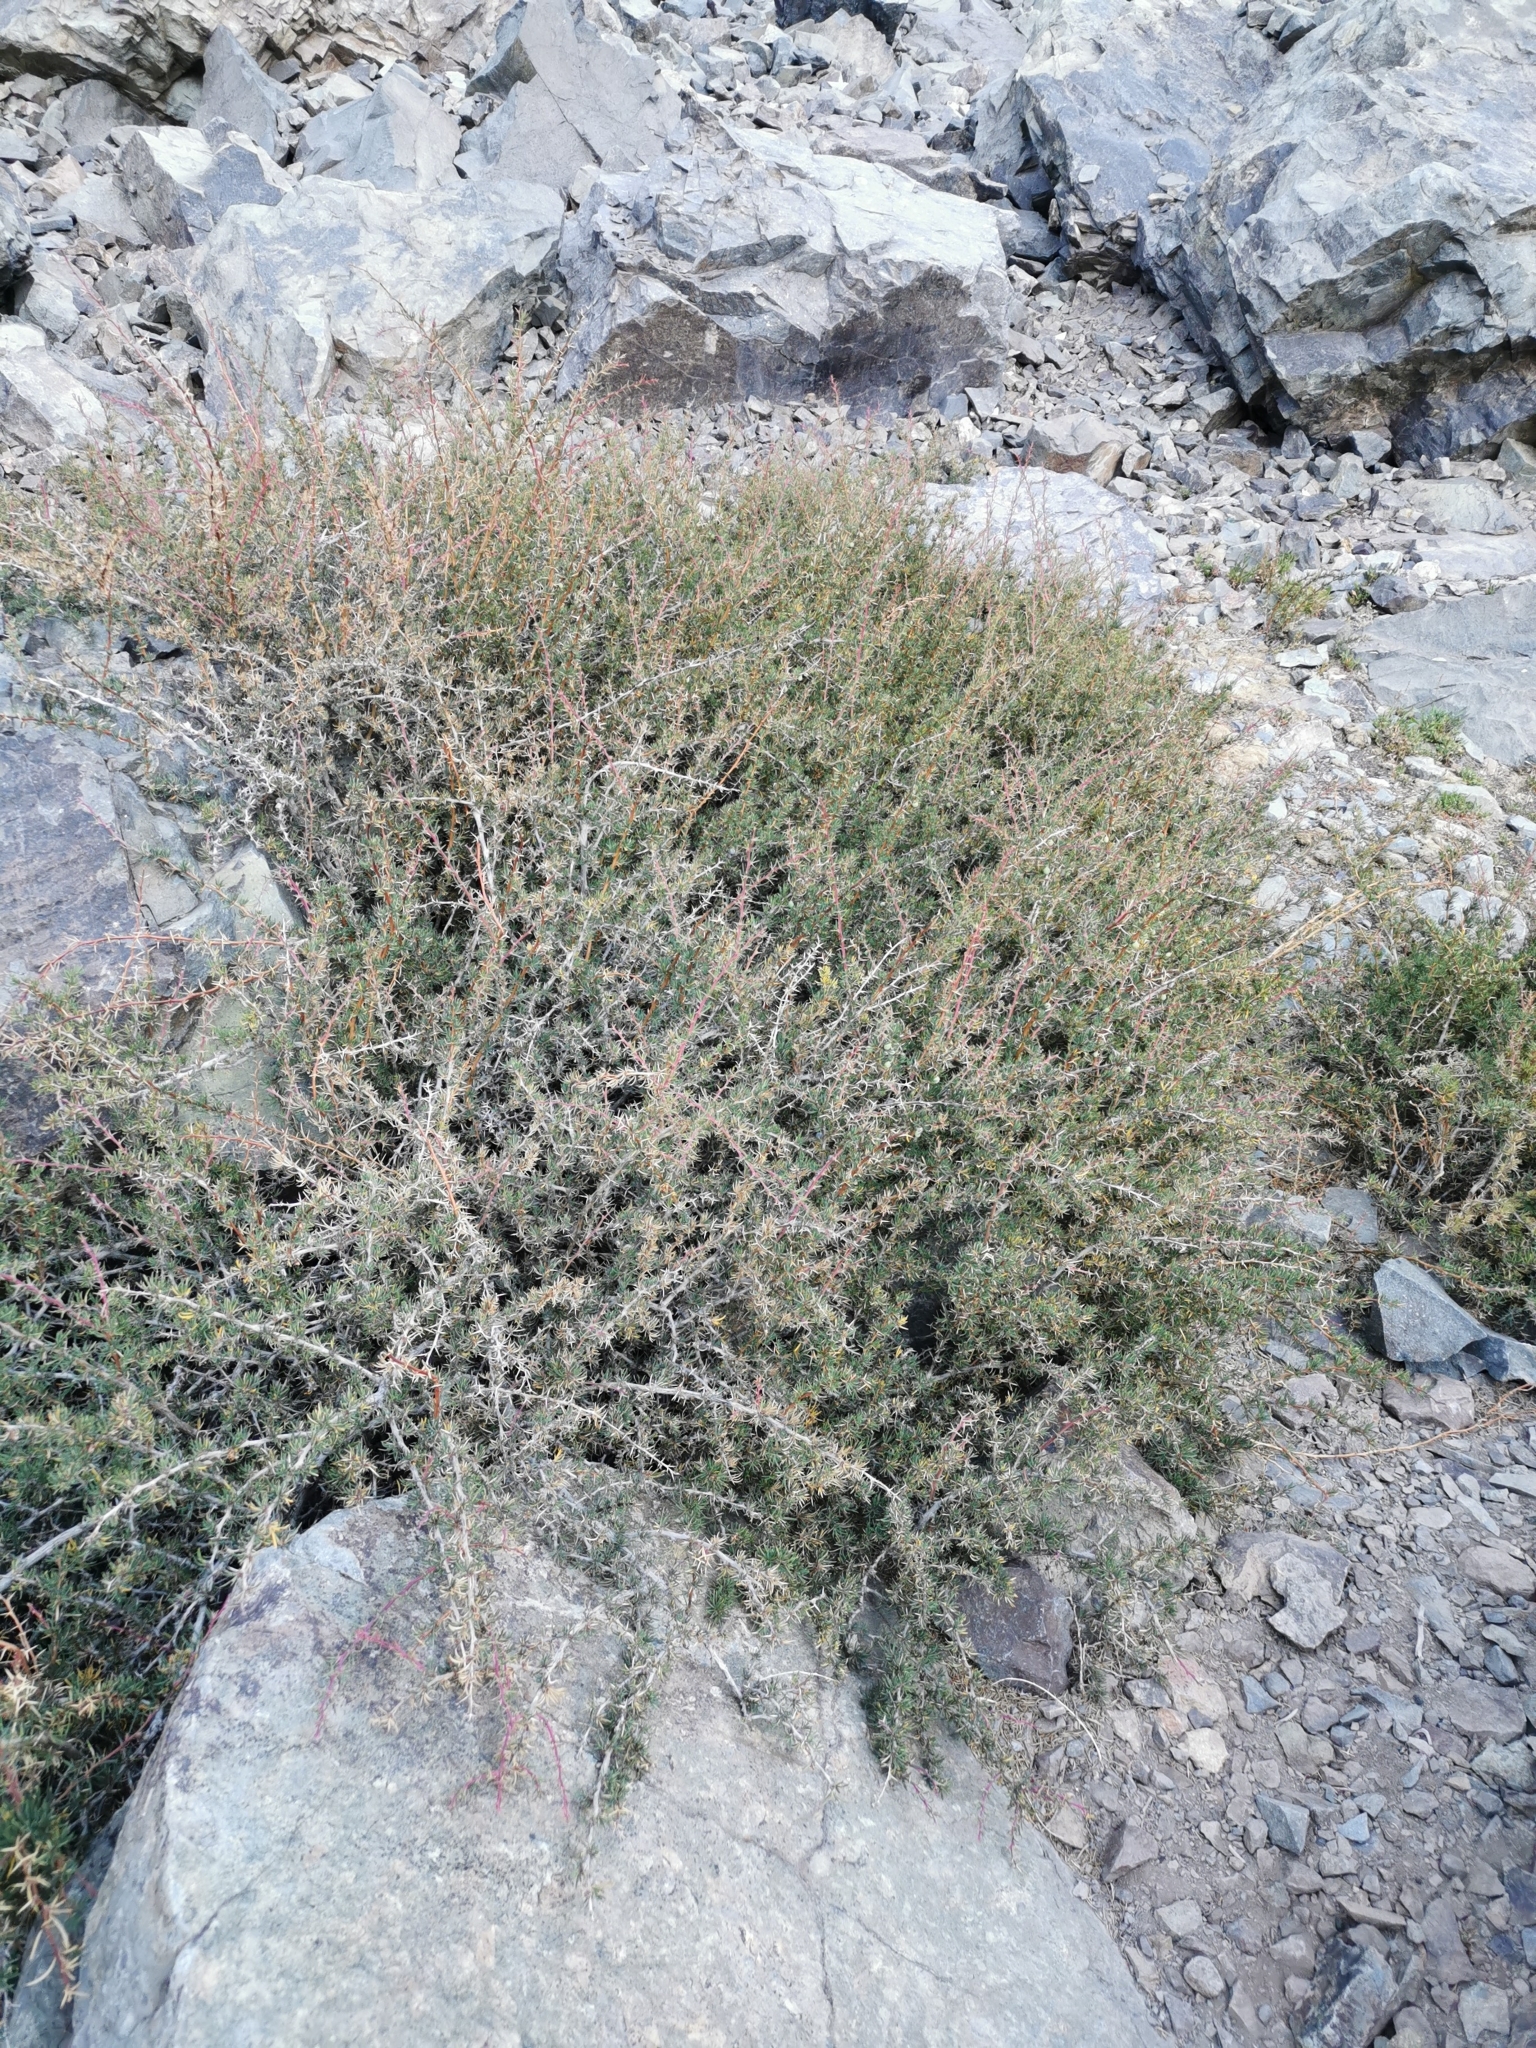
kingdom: Plantae
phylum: Tracheophyta
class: Magnoliopsida
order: Ranunculales
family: Berberidaceae
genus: Berberis
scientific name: Berberis empetrifolia
